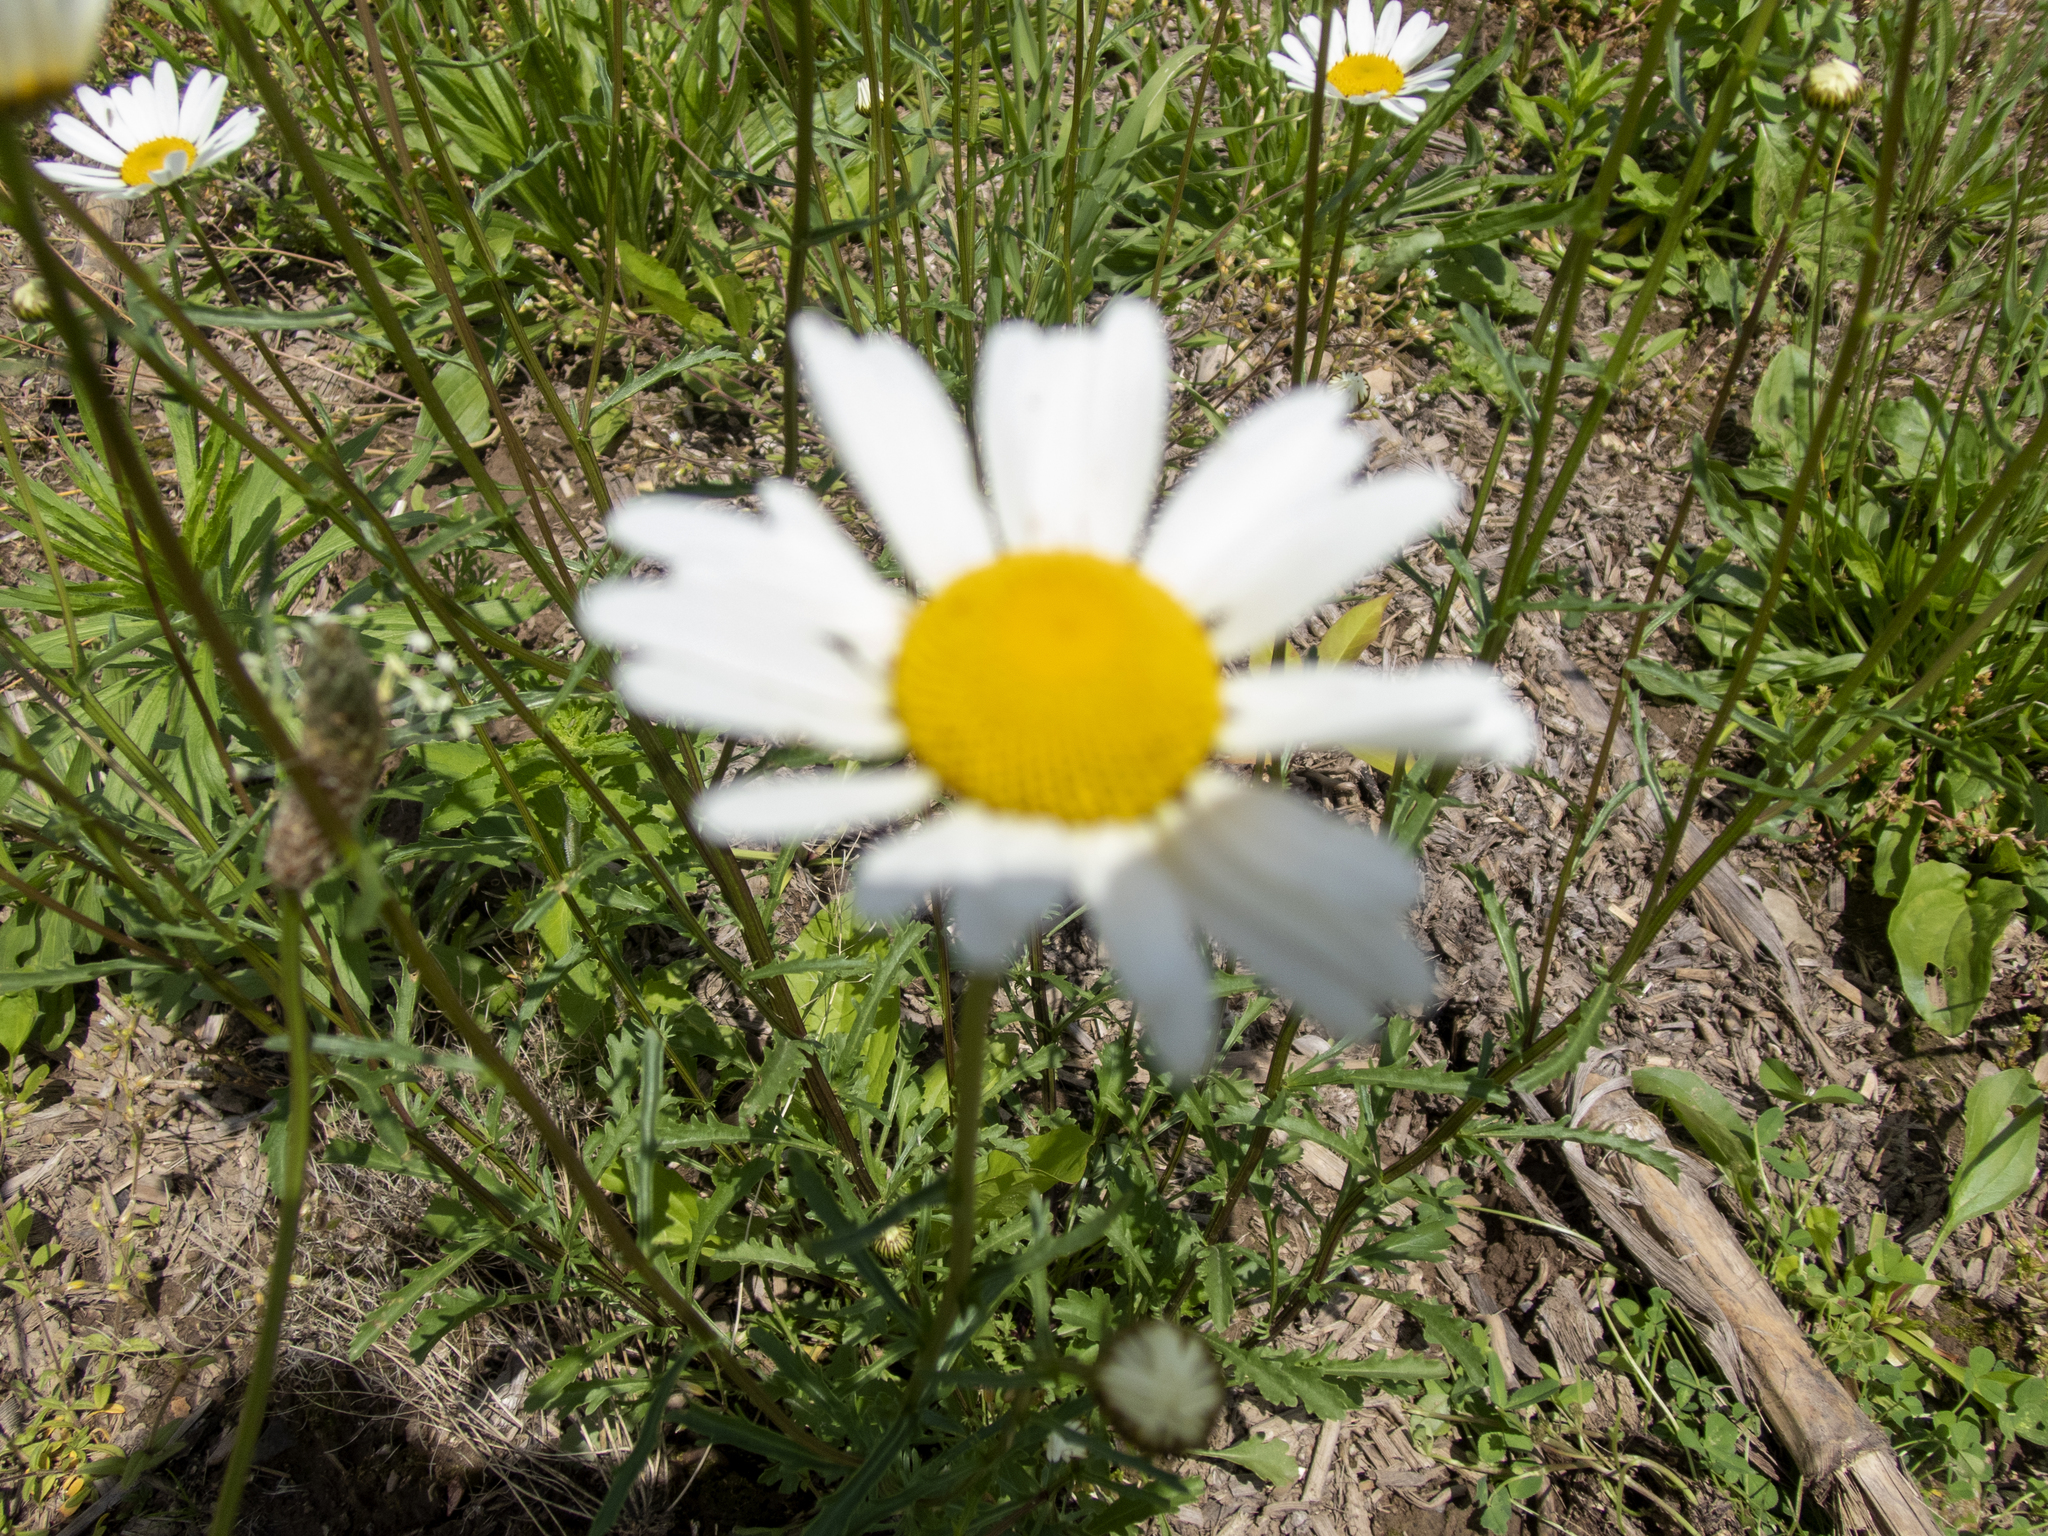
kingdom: Plantae
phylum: Tracheophyta
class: Magnoliopsida
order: Asterales
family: Asteraceae
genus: Leucanthemum
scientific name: Leucanthemum vulgare
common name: Oxeye daisy
